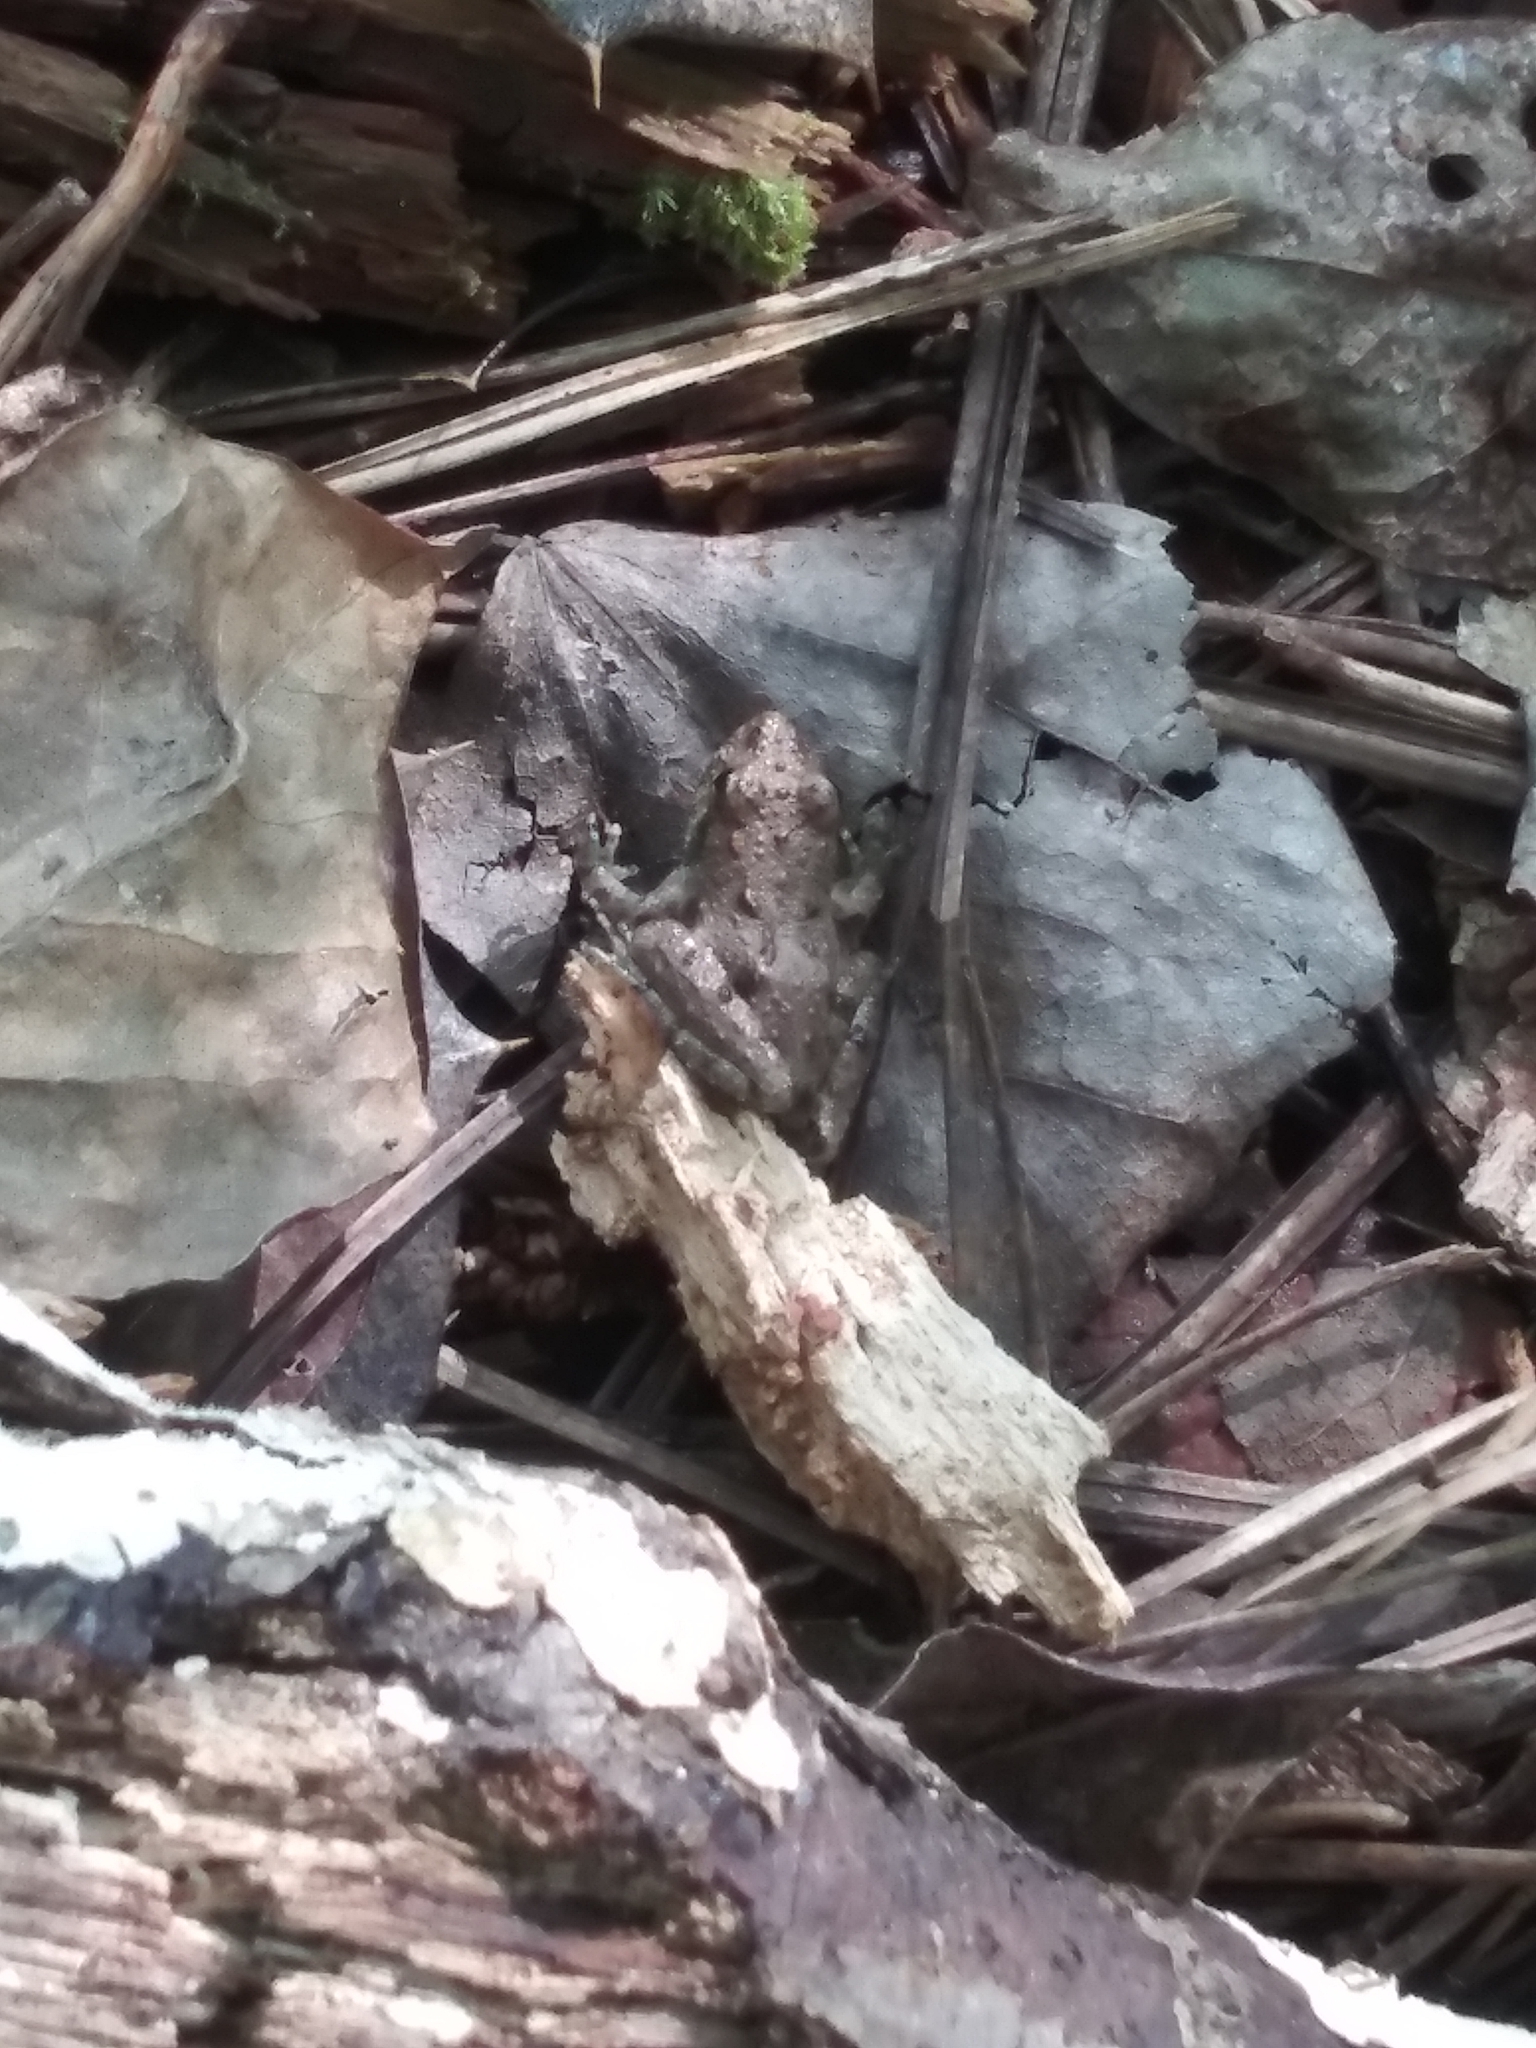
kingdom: Animalia
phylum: Chordata
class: Amphibia
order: Anura
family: Hylidae
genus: Acris
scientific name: Acris crepitans
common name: Northern cricket frog
